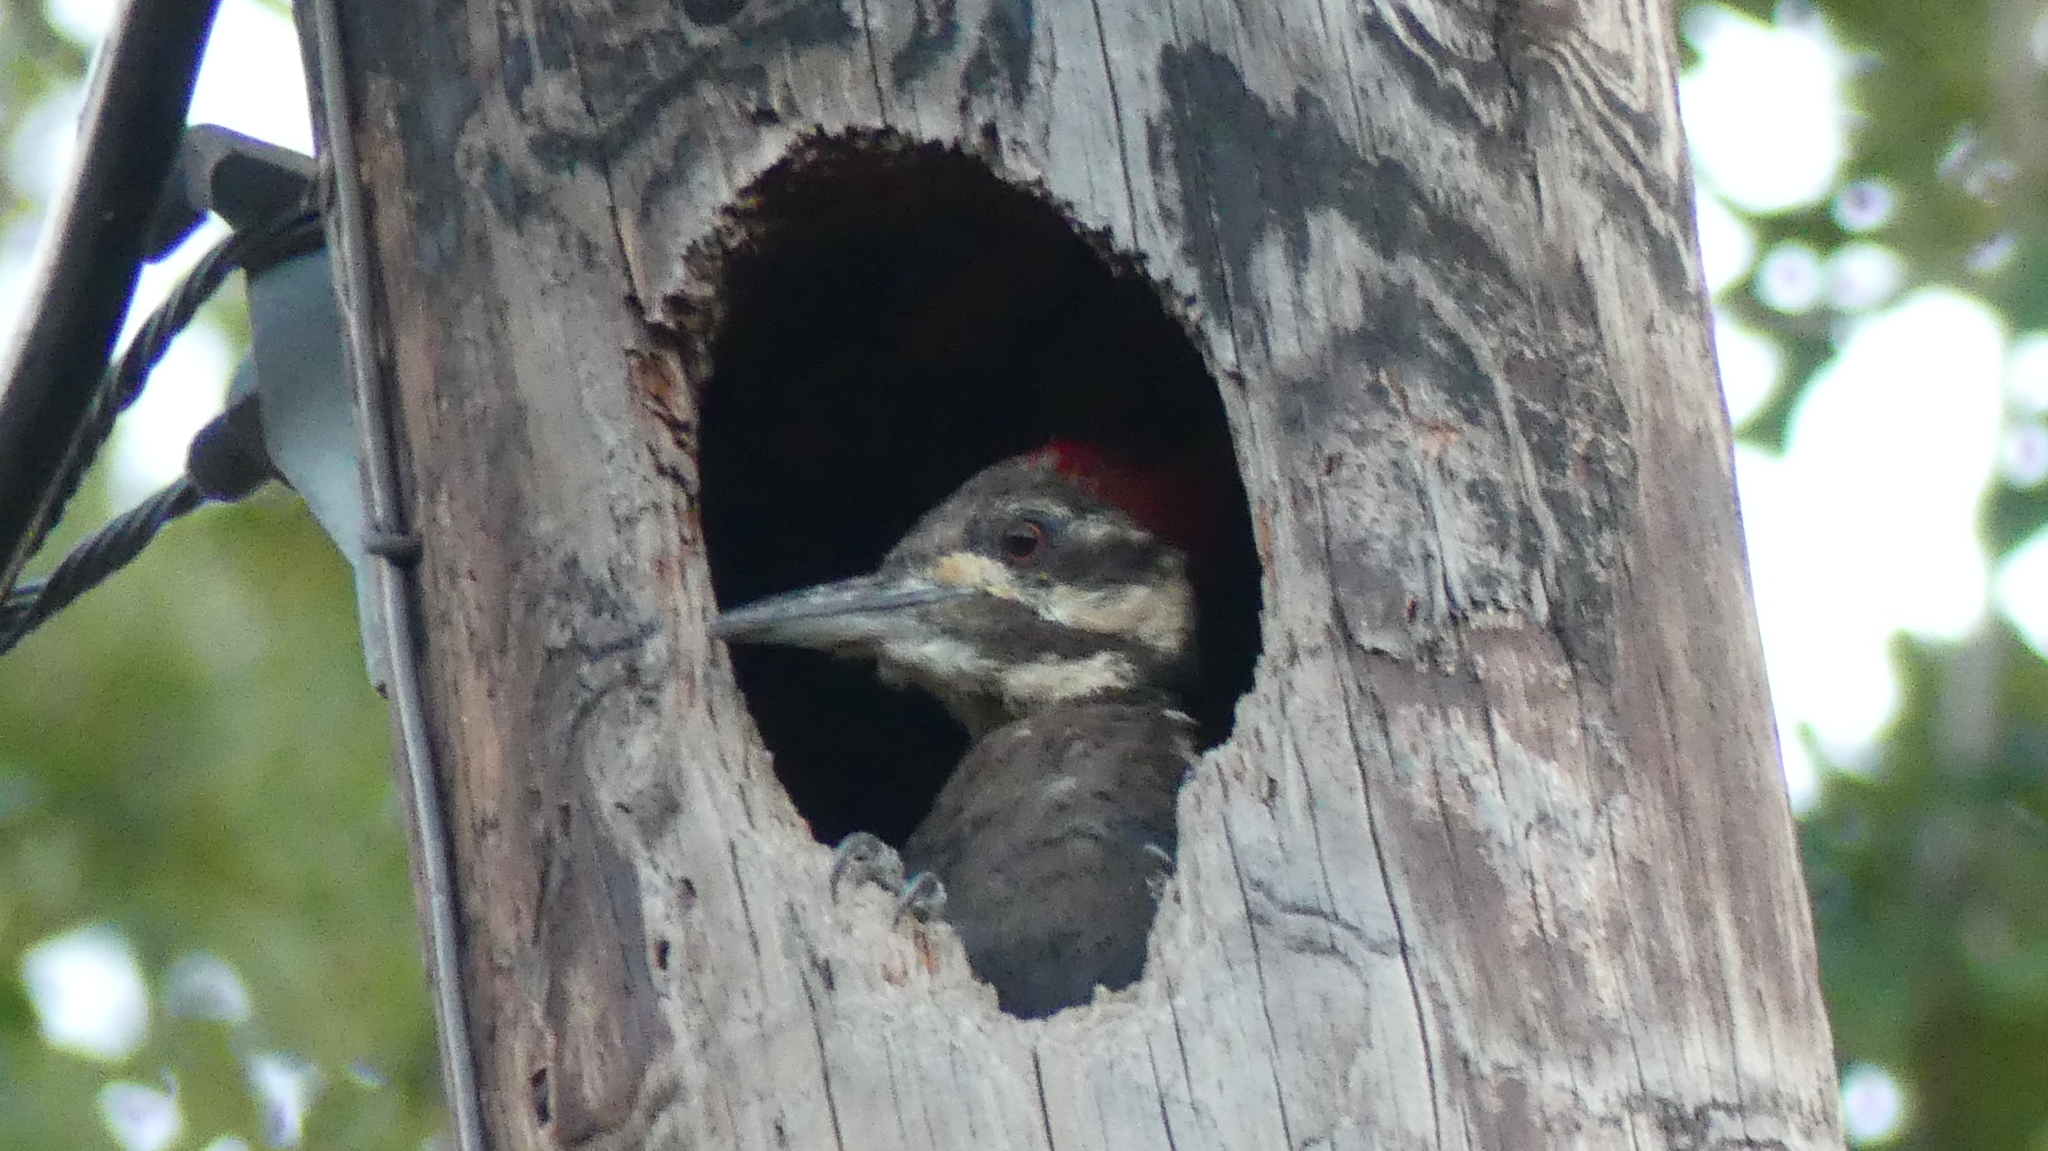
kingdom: Animalia
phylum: Chordata
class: Aves
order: Piciformes
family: Picidae
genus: Dryocopus
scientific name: Dryocopus pileatus
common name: Pileated woodpecker
